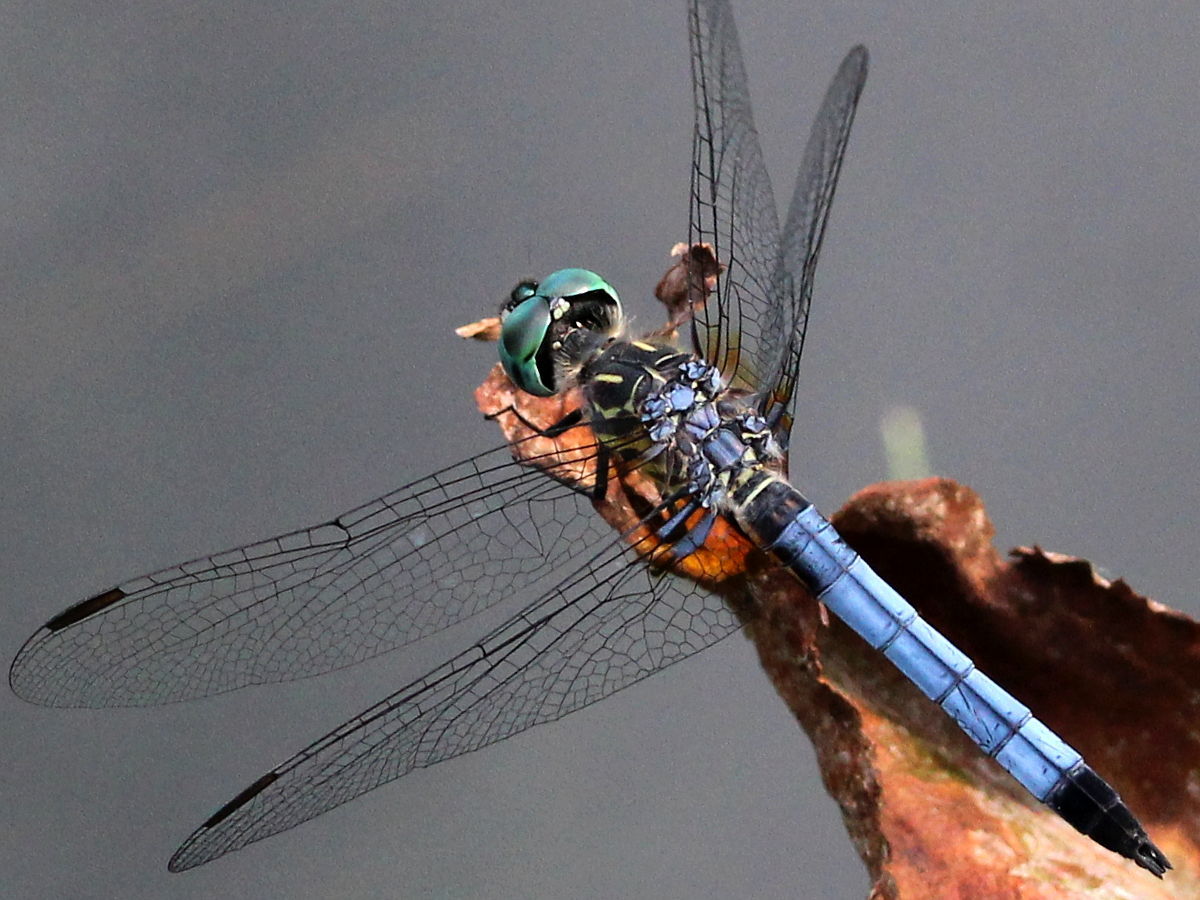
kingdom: Animalia
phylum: Arthropoda
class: Insecta
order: Odonata
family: Libellulidae
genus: Pachydiplax
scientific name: Pachydiplax longipennis
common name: Blue dasher
